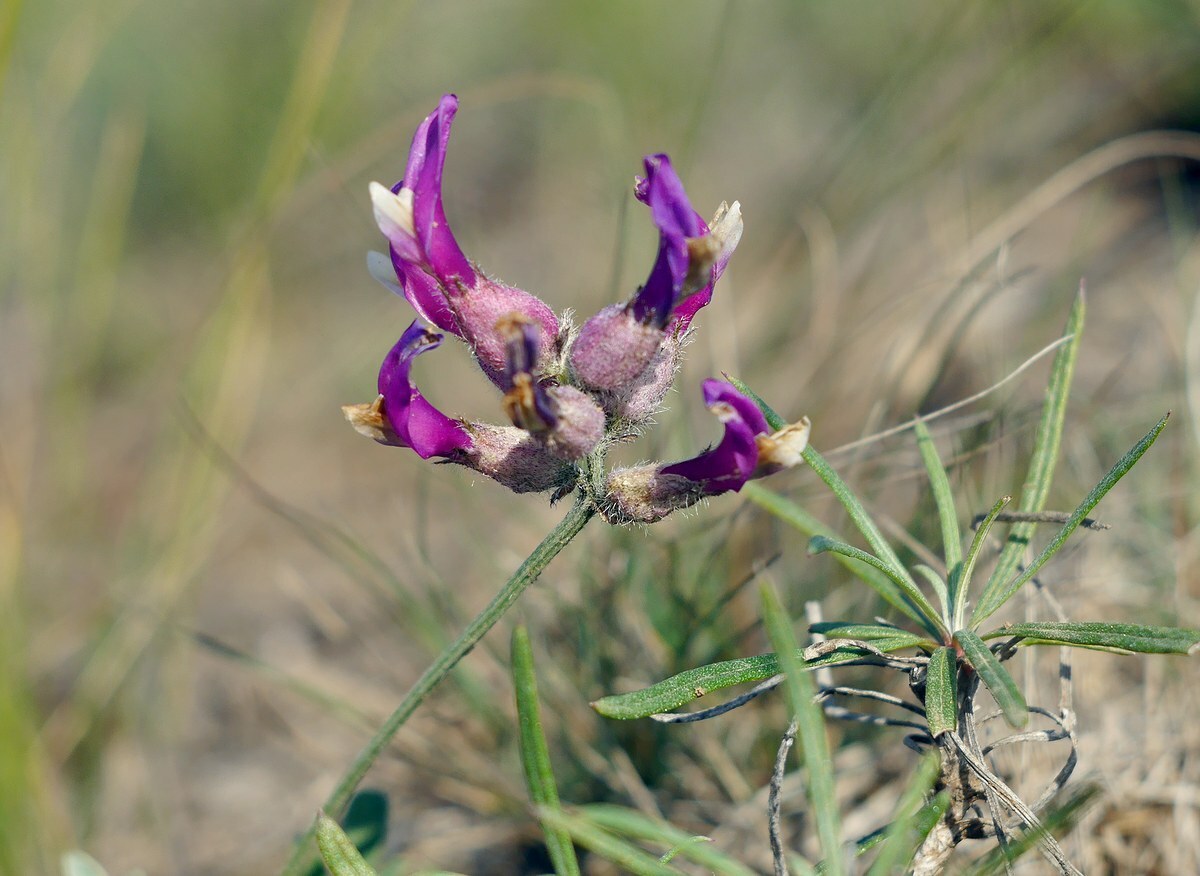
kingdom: Plantae
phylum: Tracheophyta
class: Magnoliopsida
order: Fabales
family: Fabaceae
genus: Astragalus
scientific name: Astragalus vesicarius
